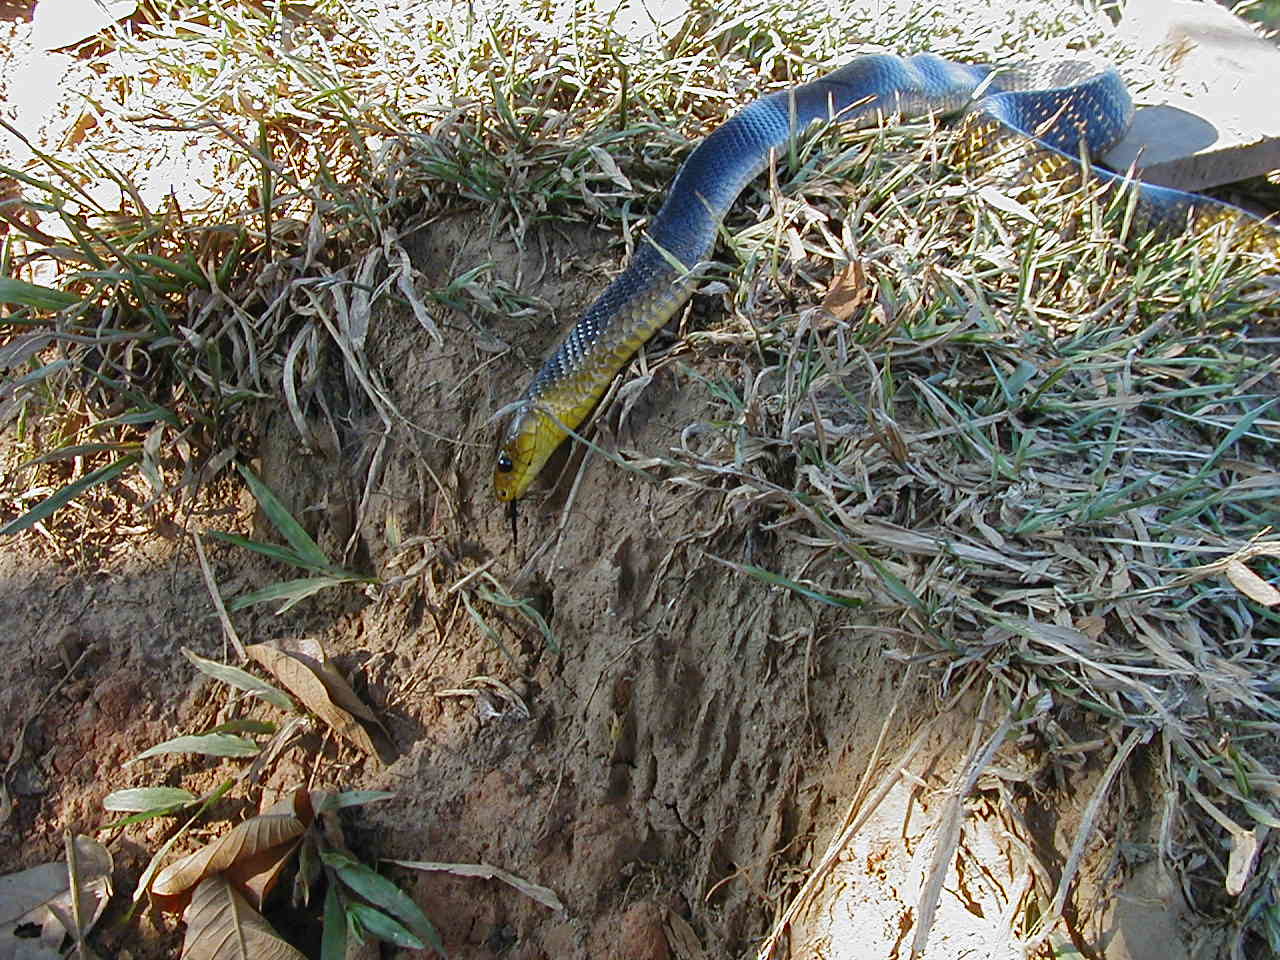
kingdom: Animalia
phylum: Chordata
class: Squamata
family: Colubridae
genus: Drymarchon
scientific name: Drymarchon corais
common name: Indigo snake
